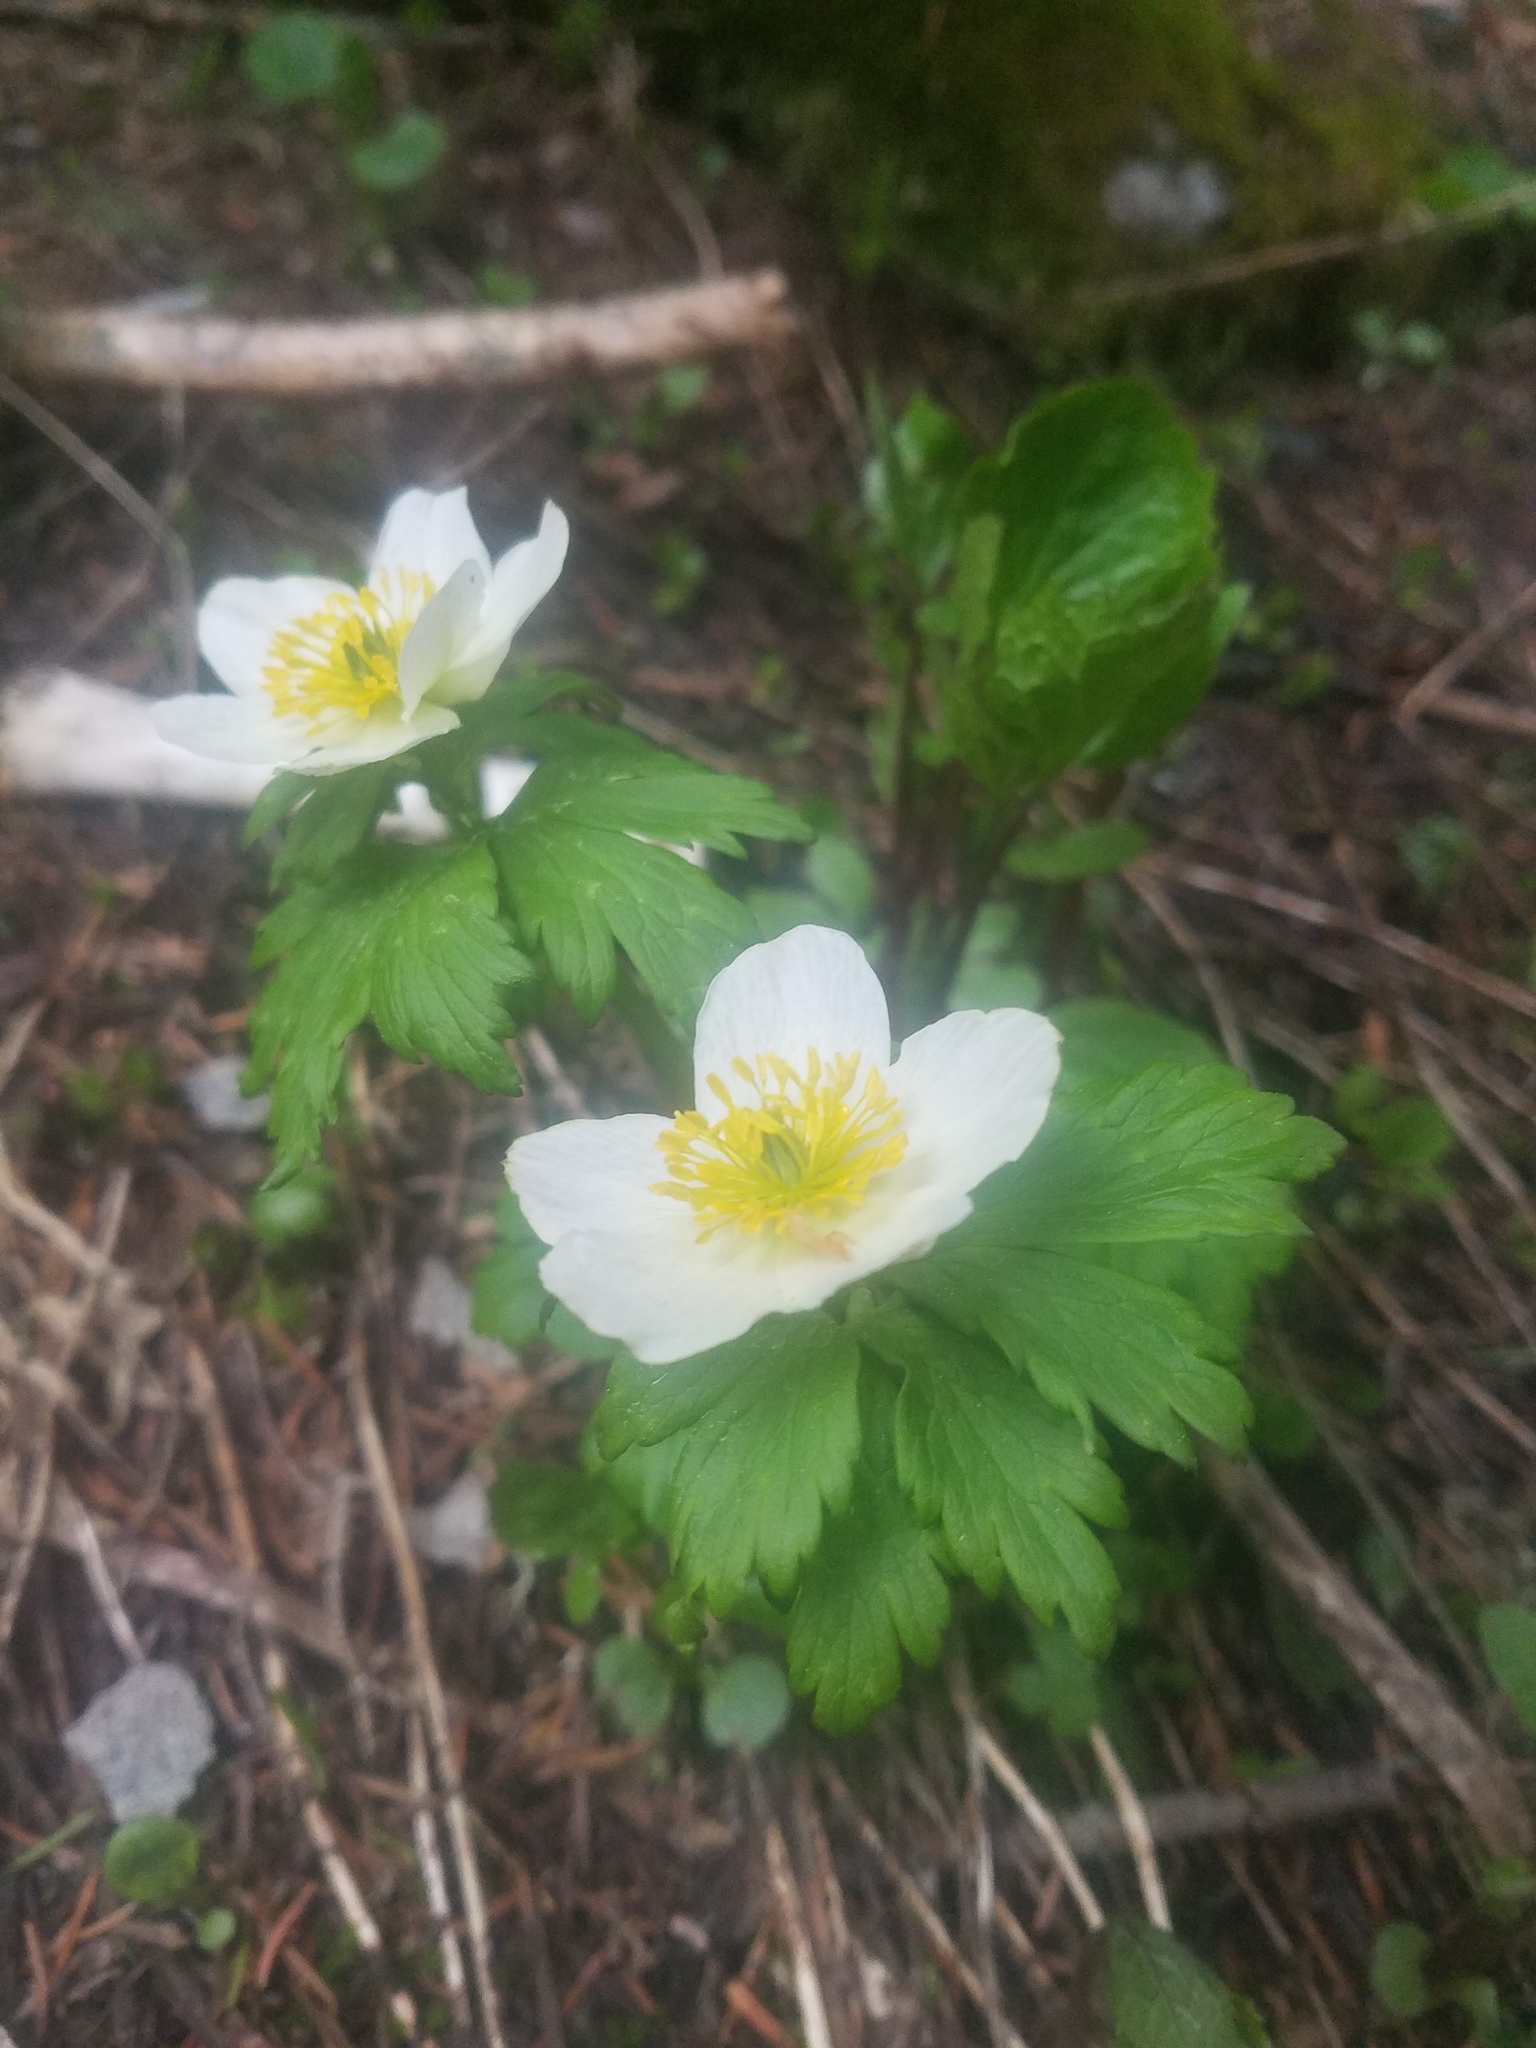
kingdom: Plantae
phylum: Tracheophyta
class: Magnoliopsida
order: Ranunculales
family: Ranunculaceae
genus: Trollius
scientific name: Trollius laxus
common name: American globeflower
